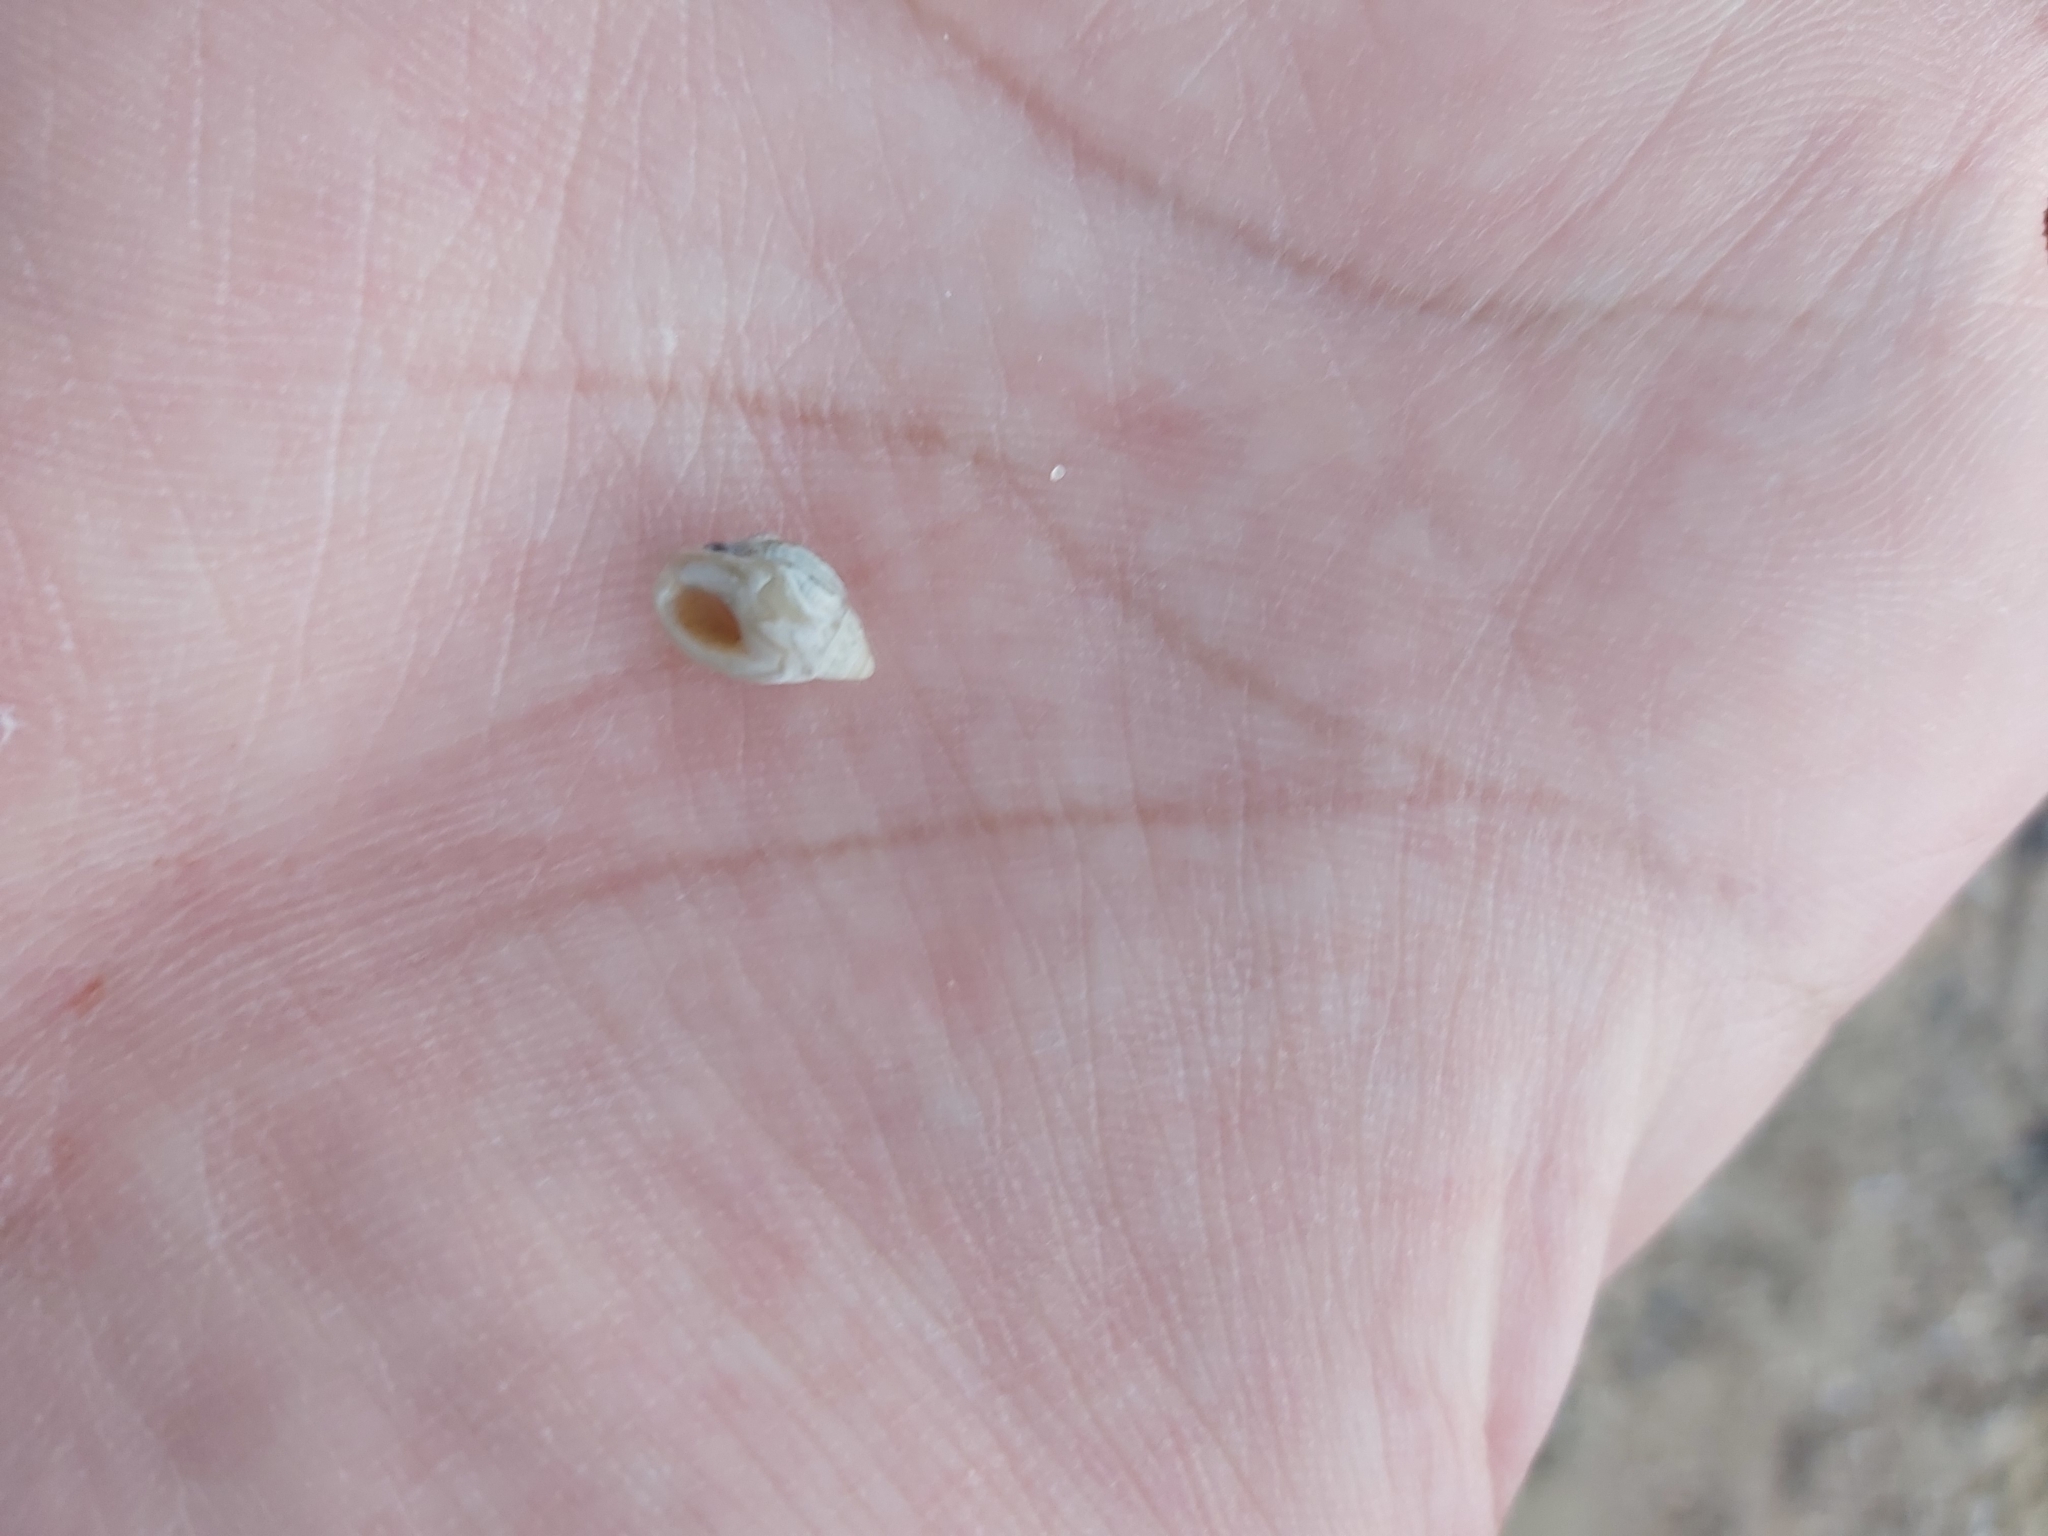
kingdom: Animalia
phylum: Mollusca
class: Gastropoda
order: Neogastropoda
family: Nassariidae
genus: Nassarius
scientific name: Nassarius jonasii
